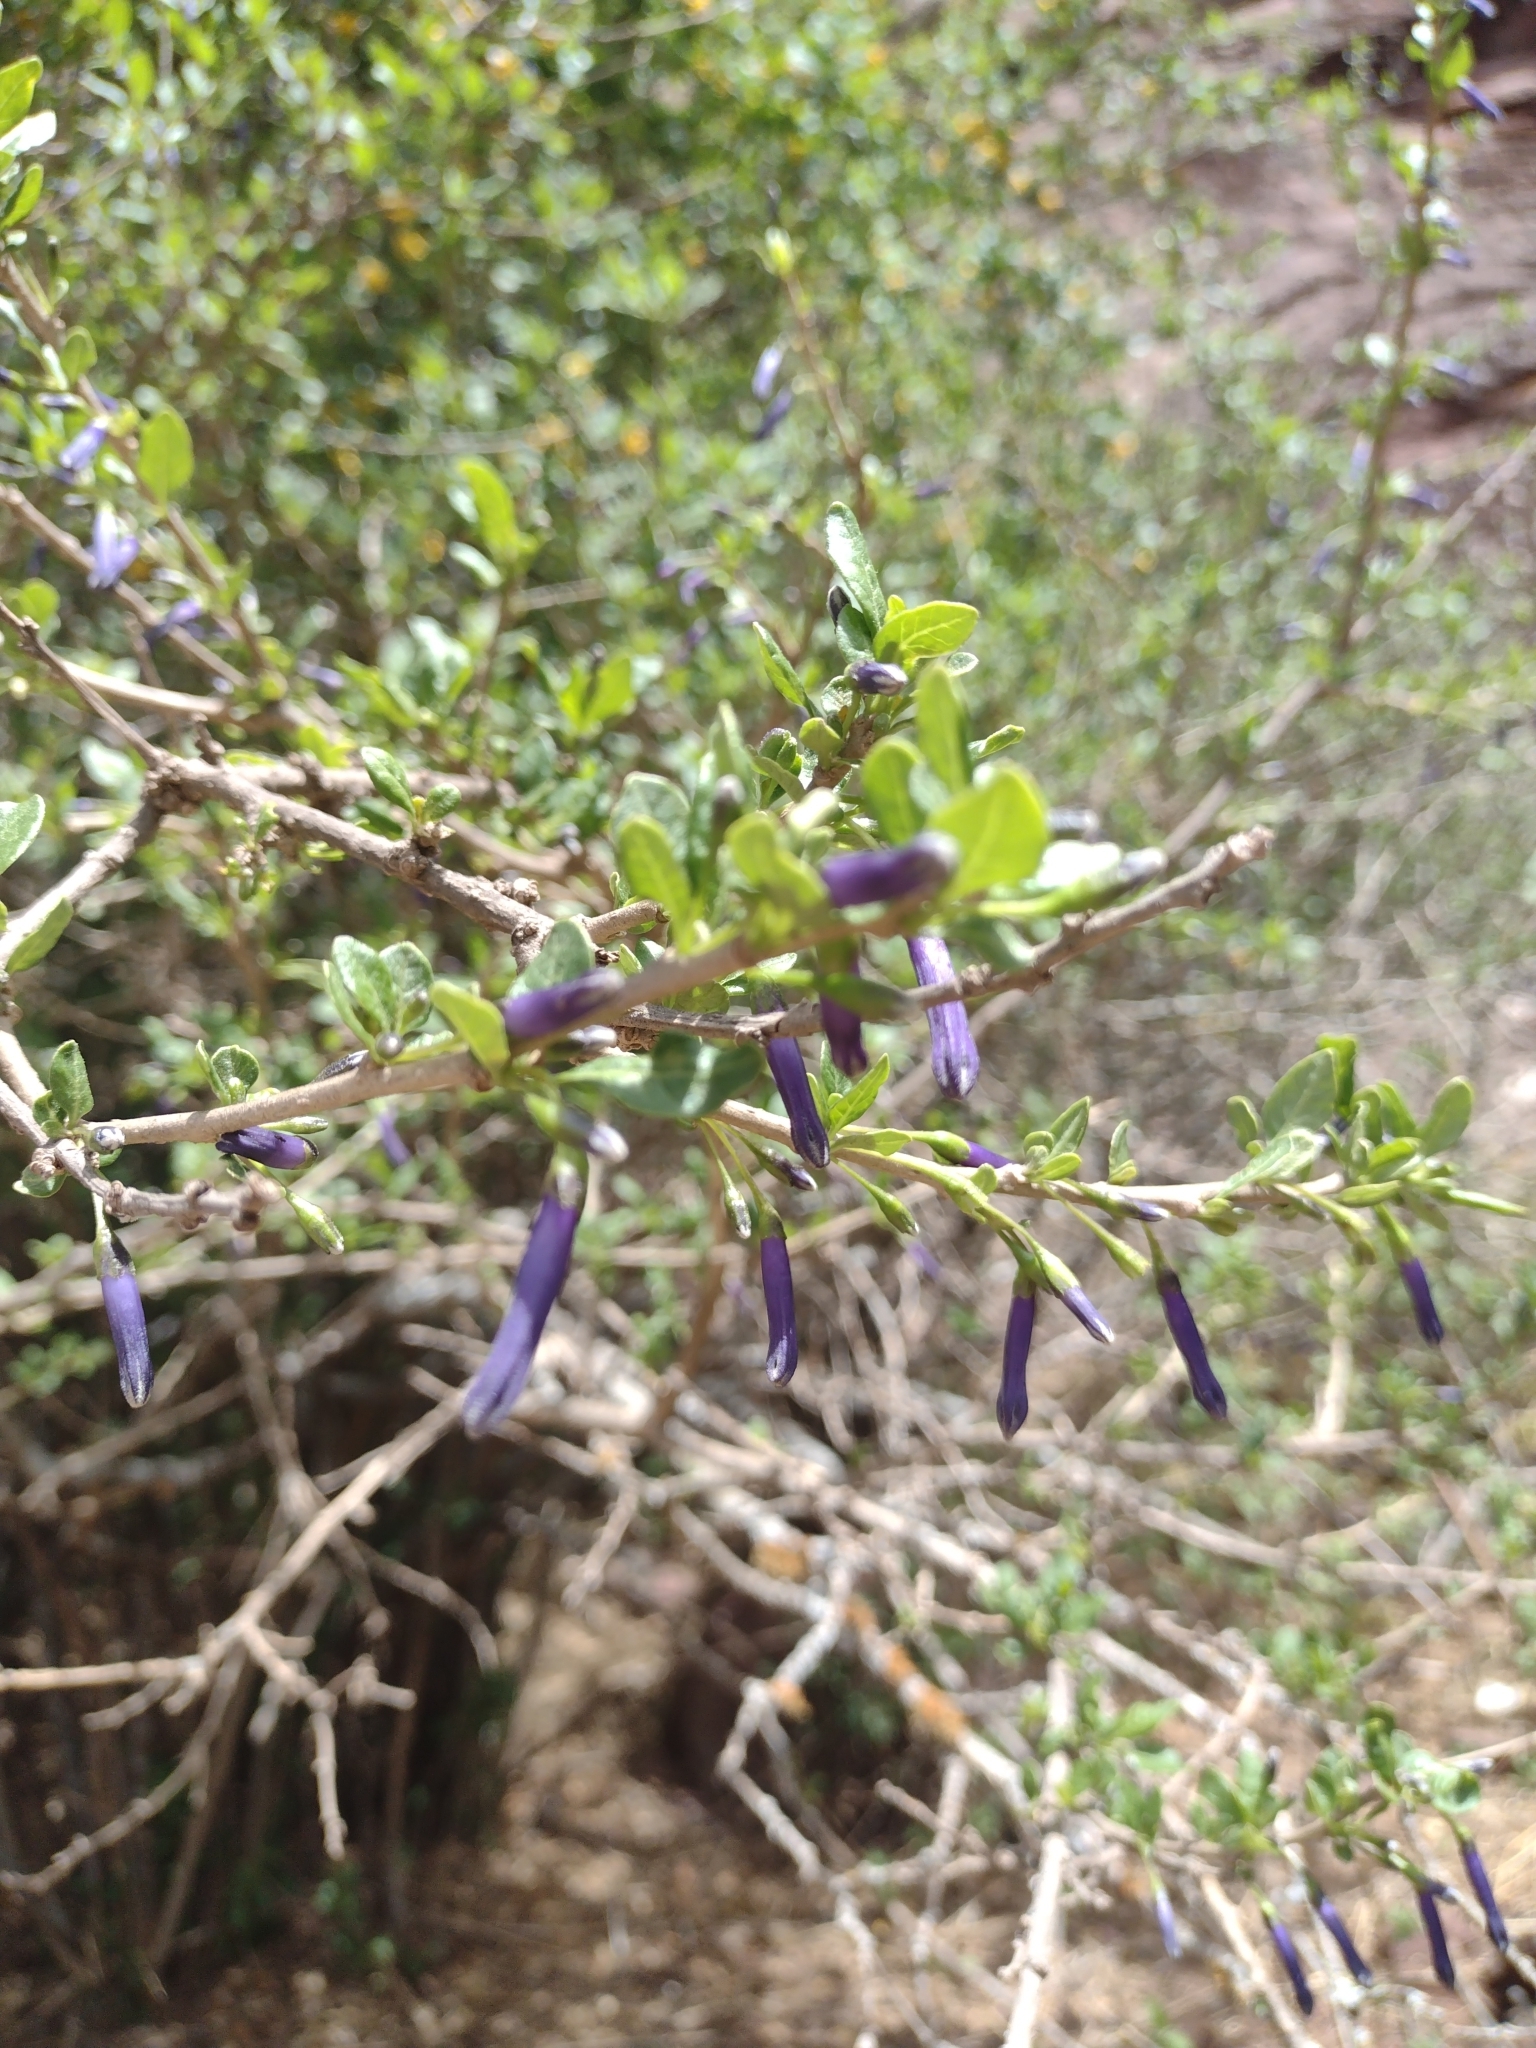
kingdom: Plantae
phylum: Tracheophyta
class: Magnoliopsida
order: Solanales
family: Solanaceae
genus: Lycium
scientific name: Lycium cestroides
